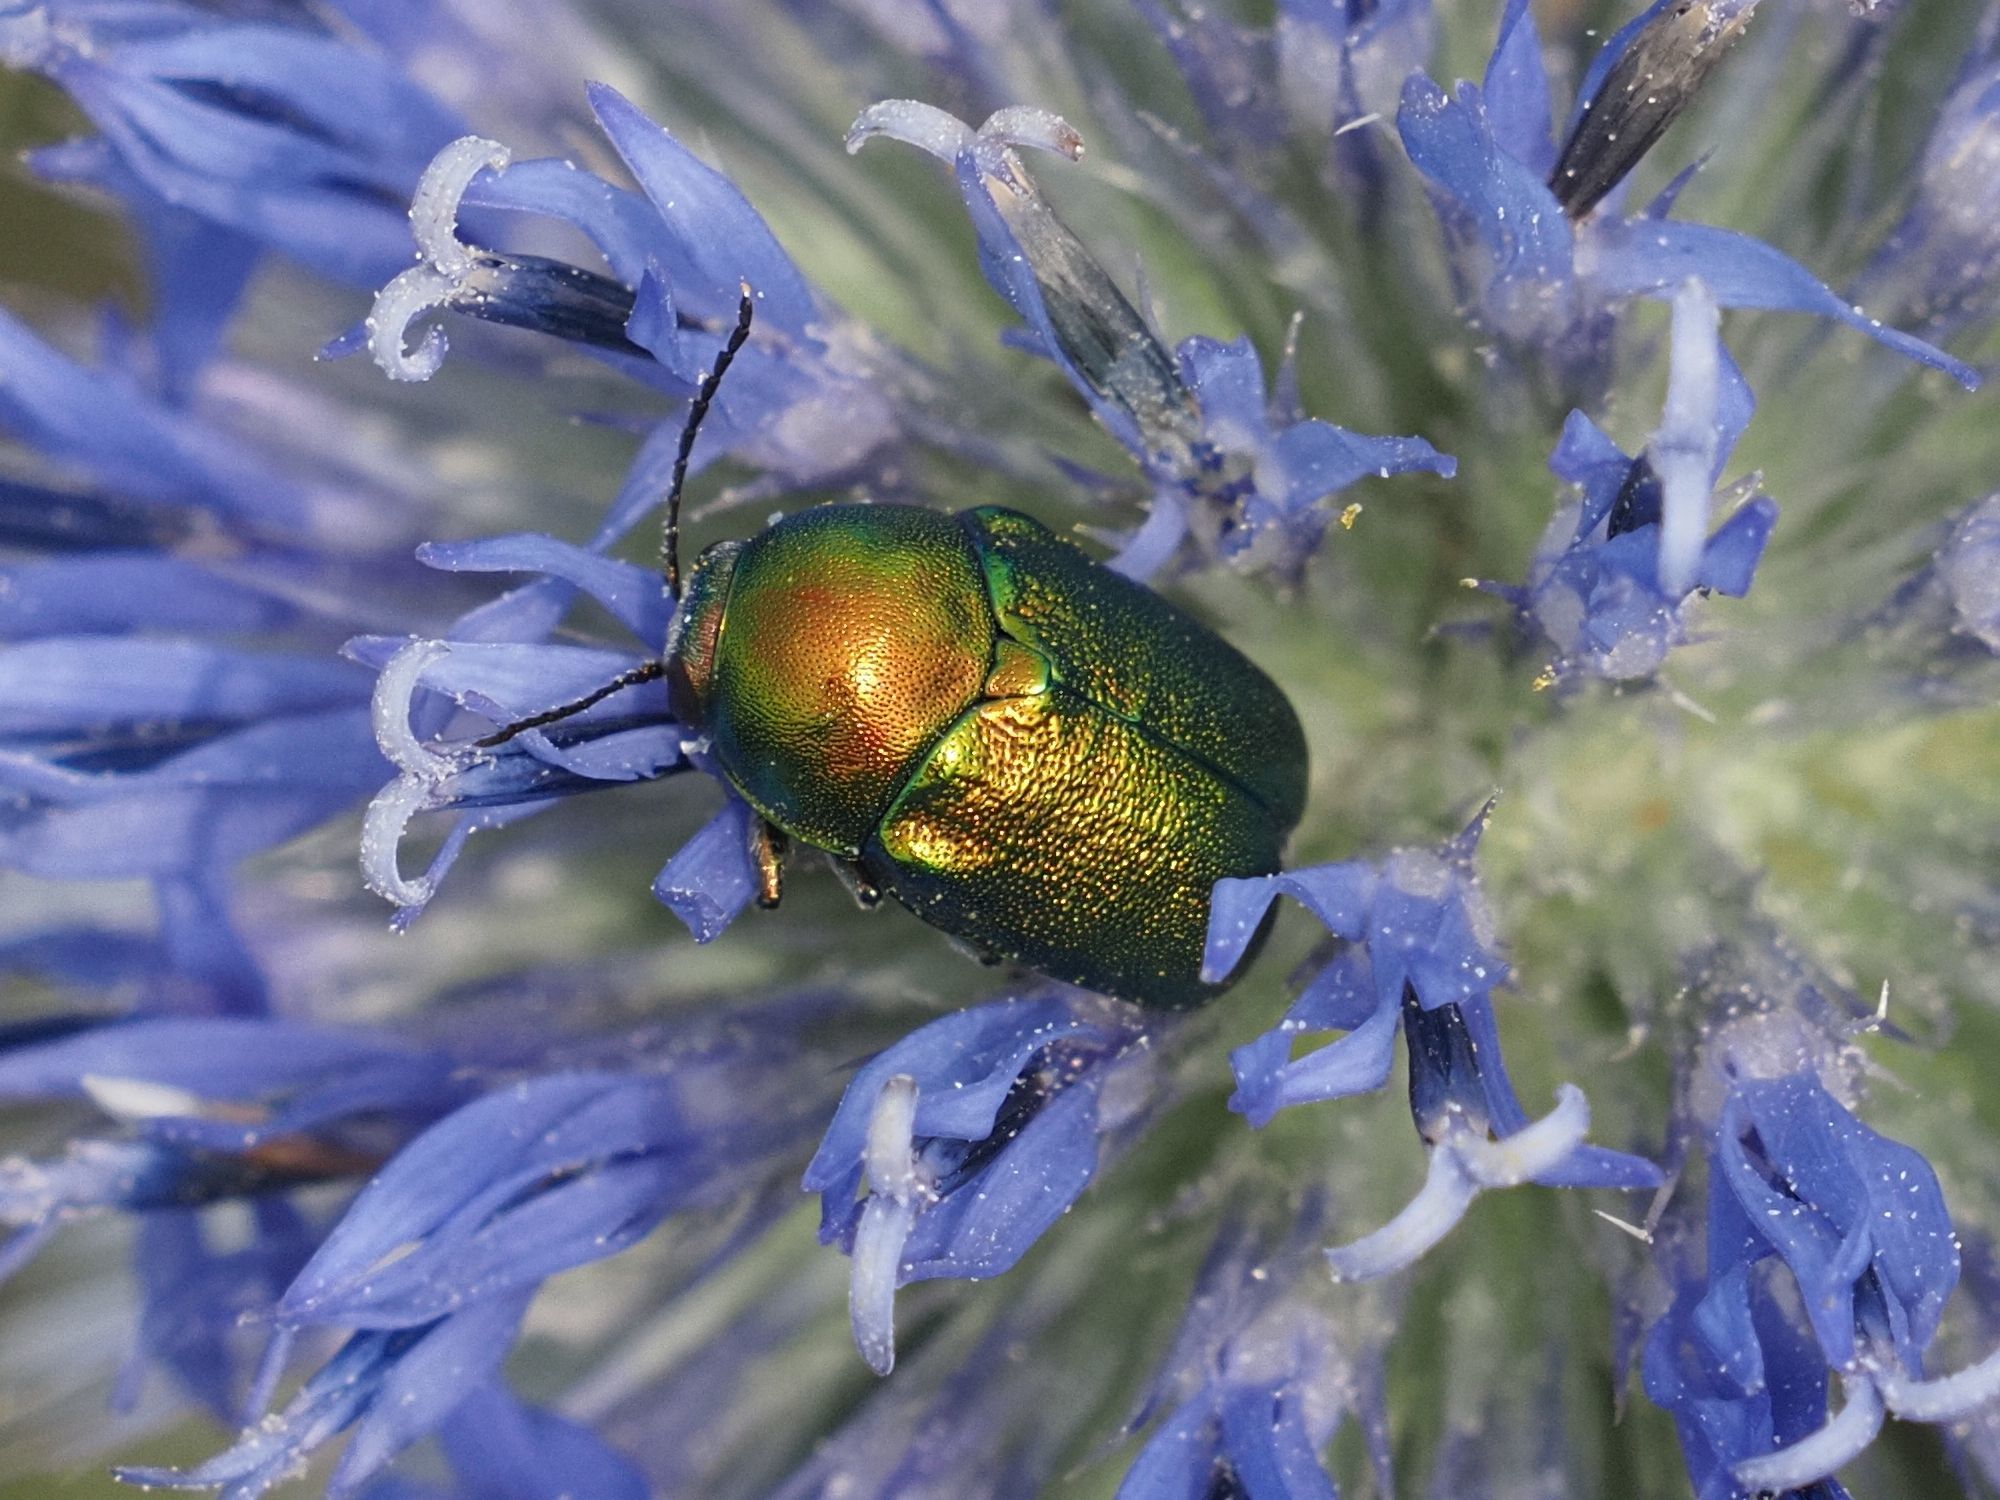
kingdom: Animalia
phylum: Arthropoda
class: Insecta
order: Coleoptera
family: Chrysomelidae
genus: Cryptocephalus
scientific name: Cryptocephalus
